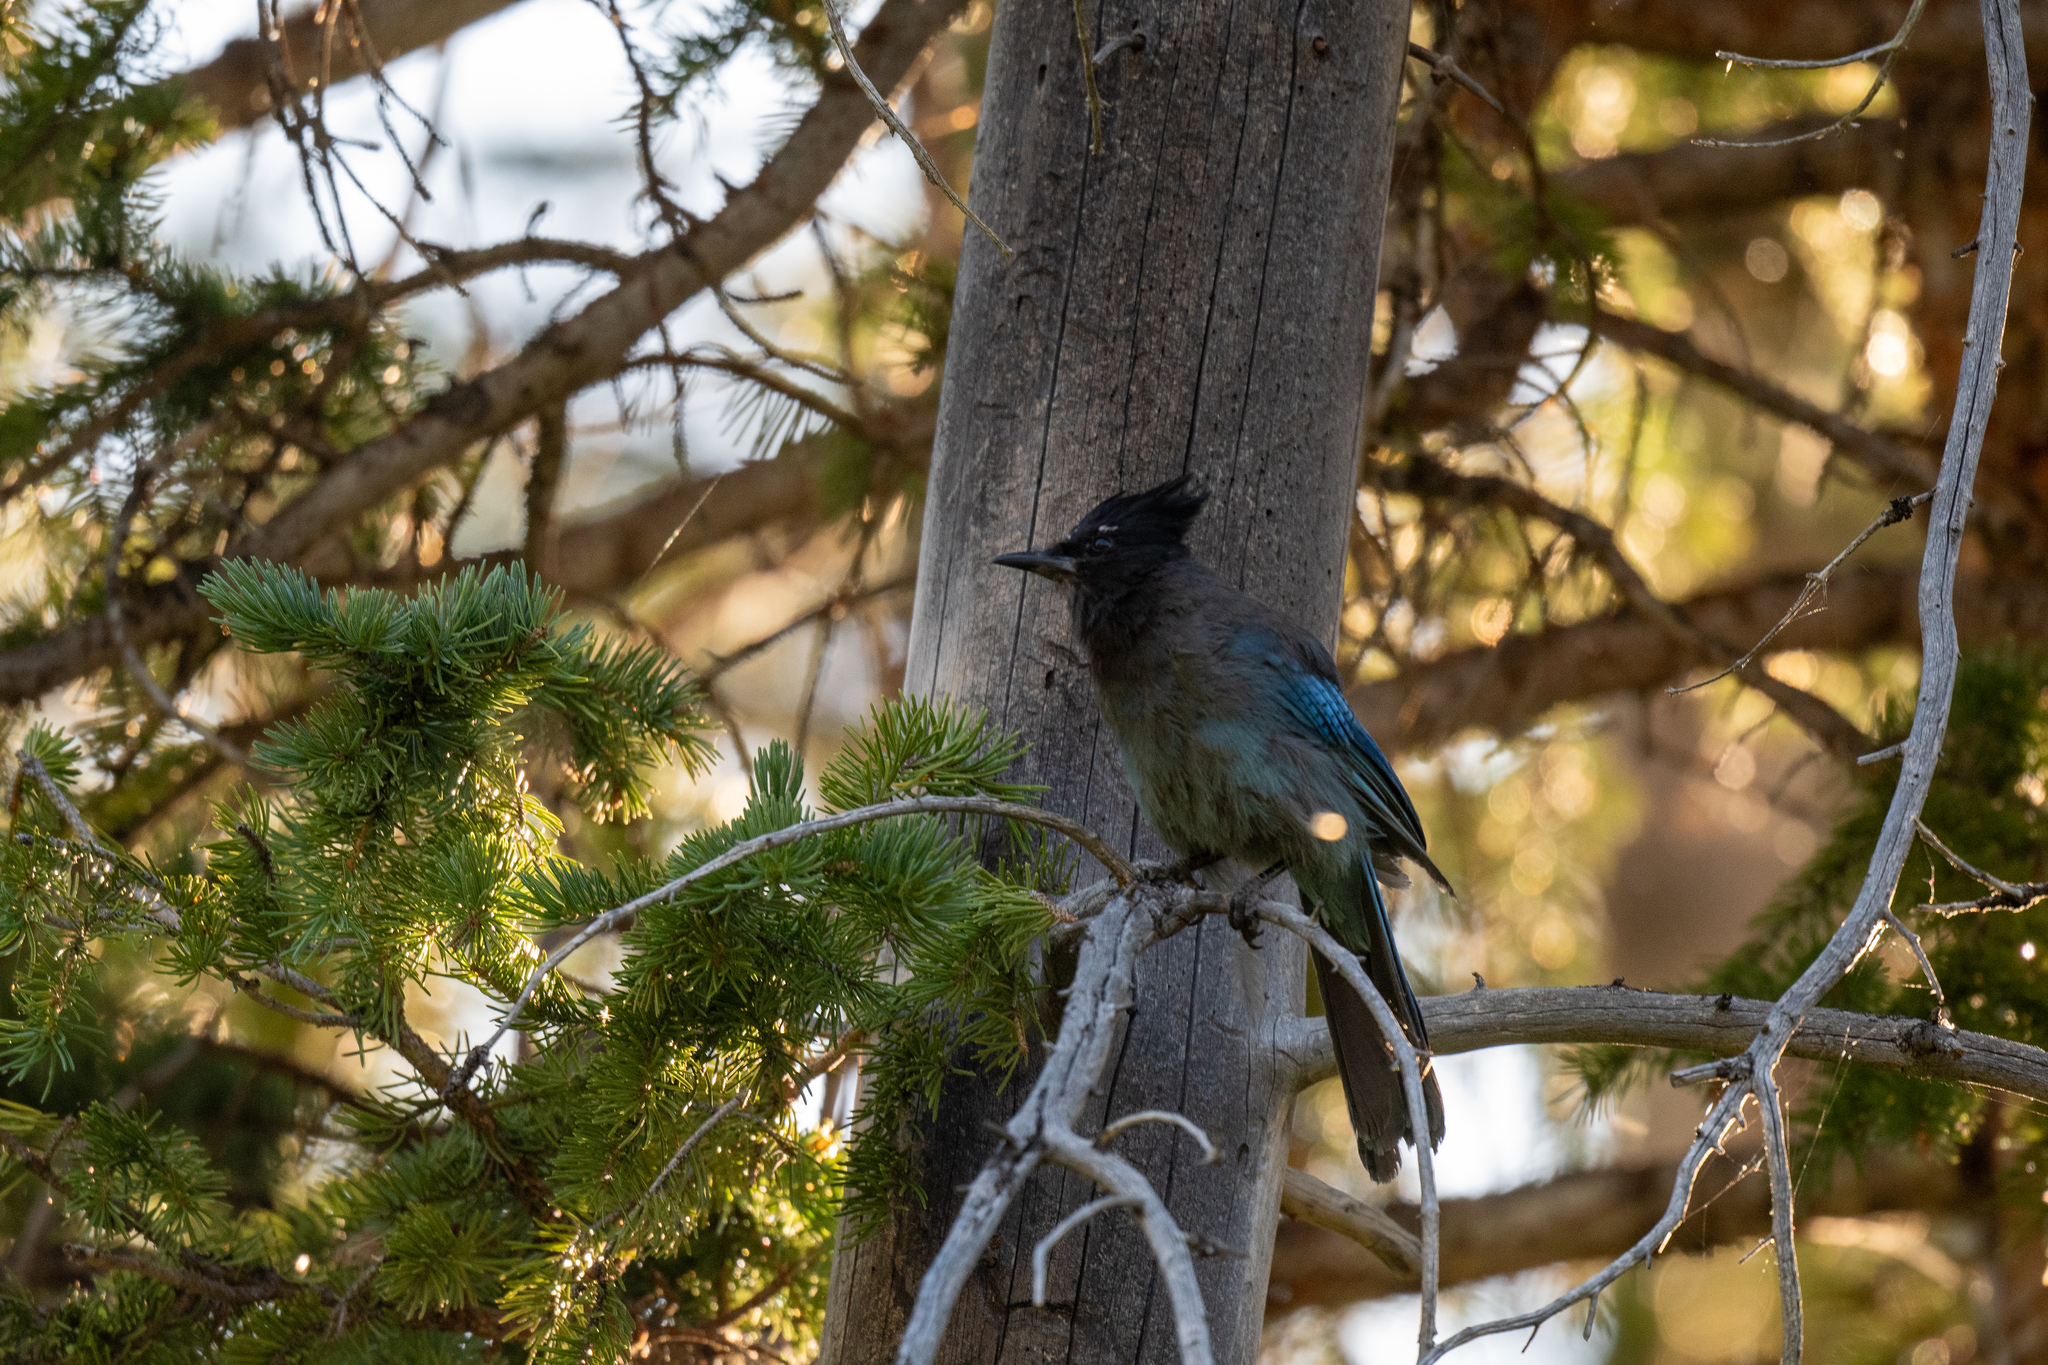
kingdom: Animalia
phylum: Chordata
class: Aves
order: Passeriformes
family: Corvidae
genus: Cyanocitta
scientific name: Cyanocitta stelleri
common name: Steller's jay
